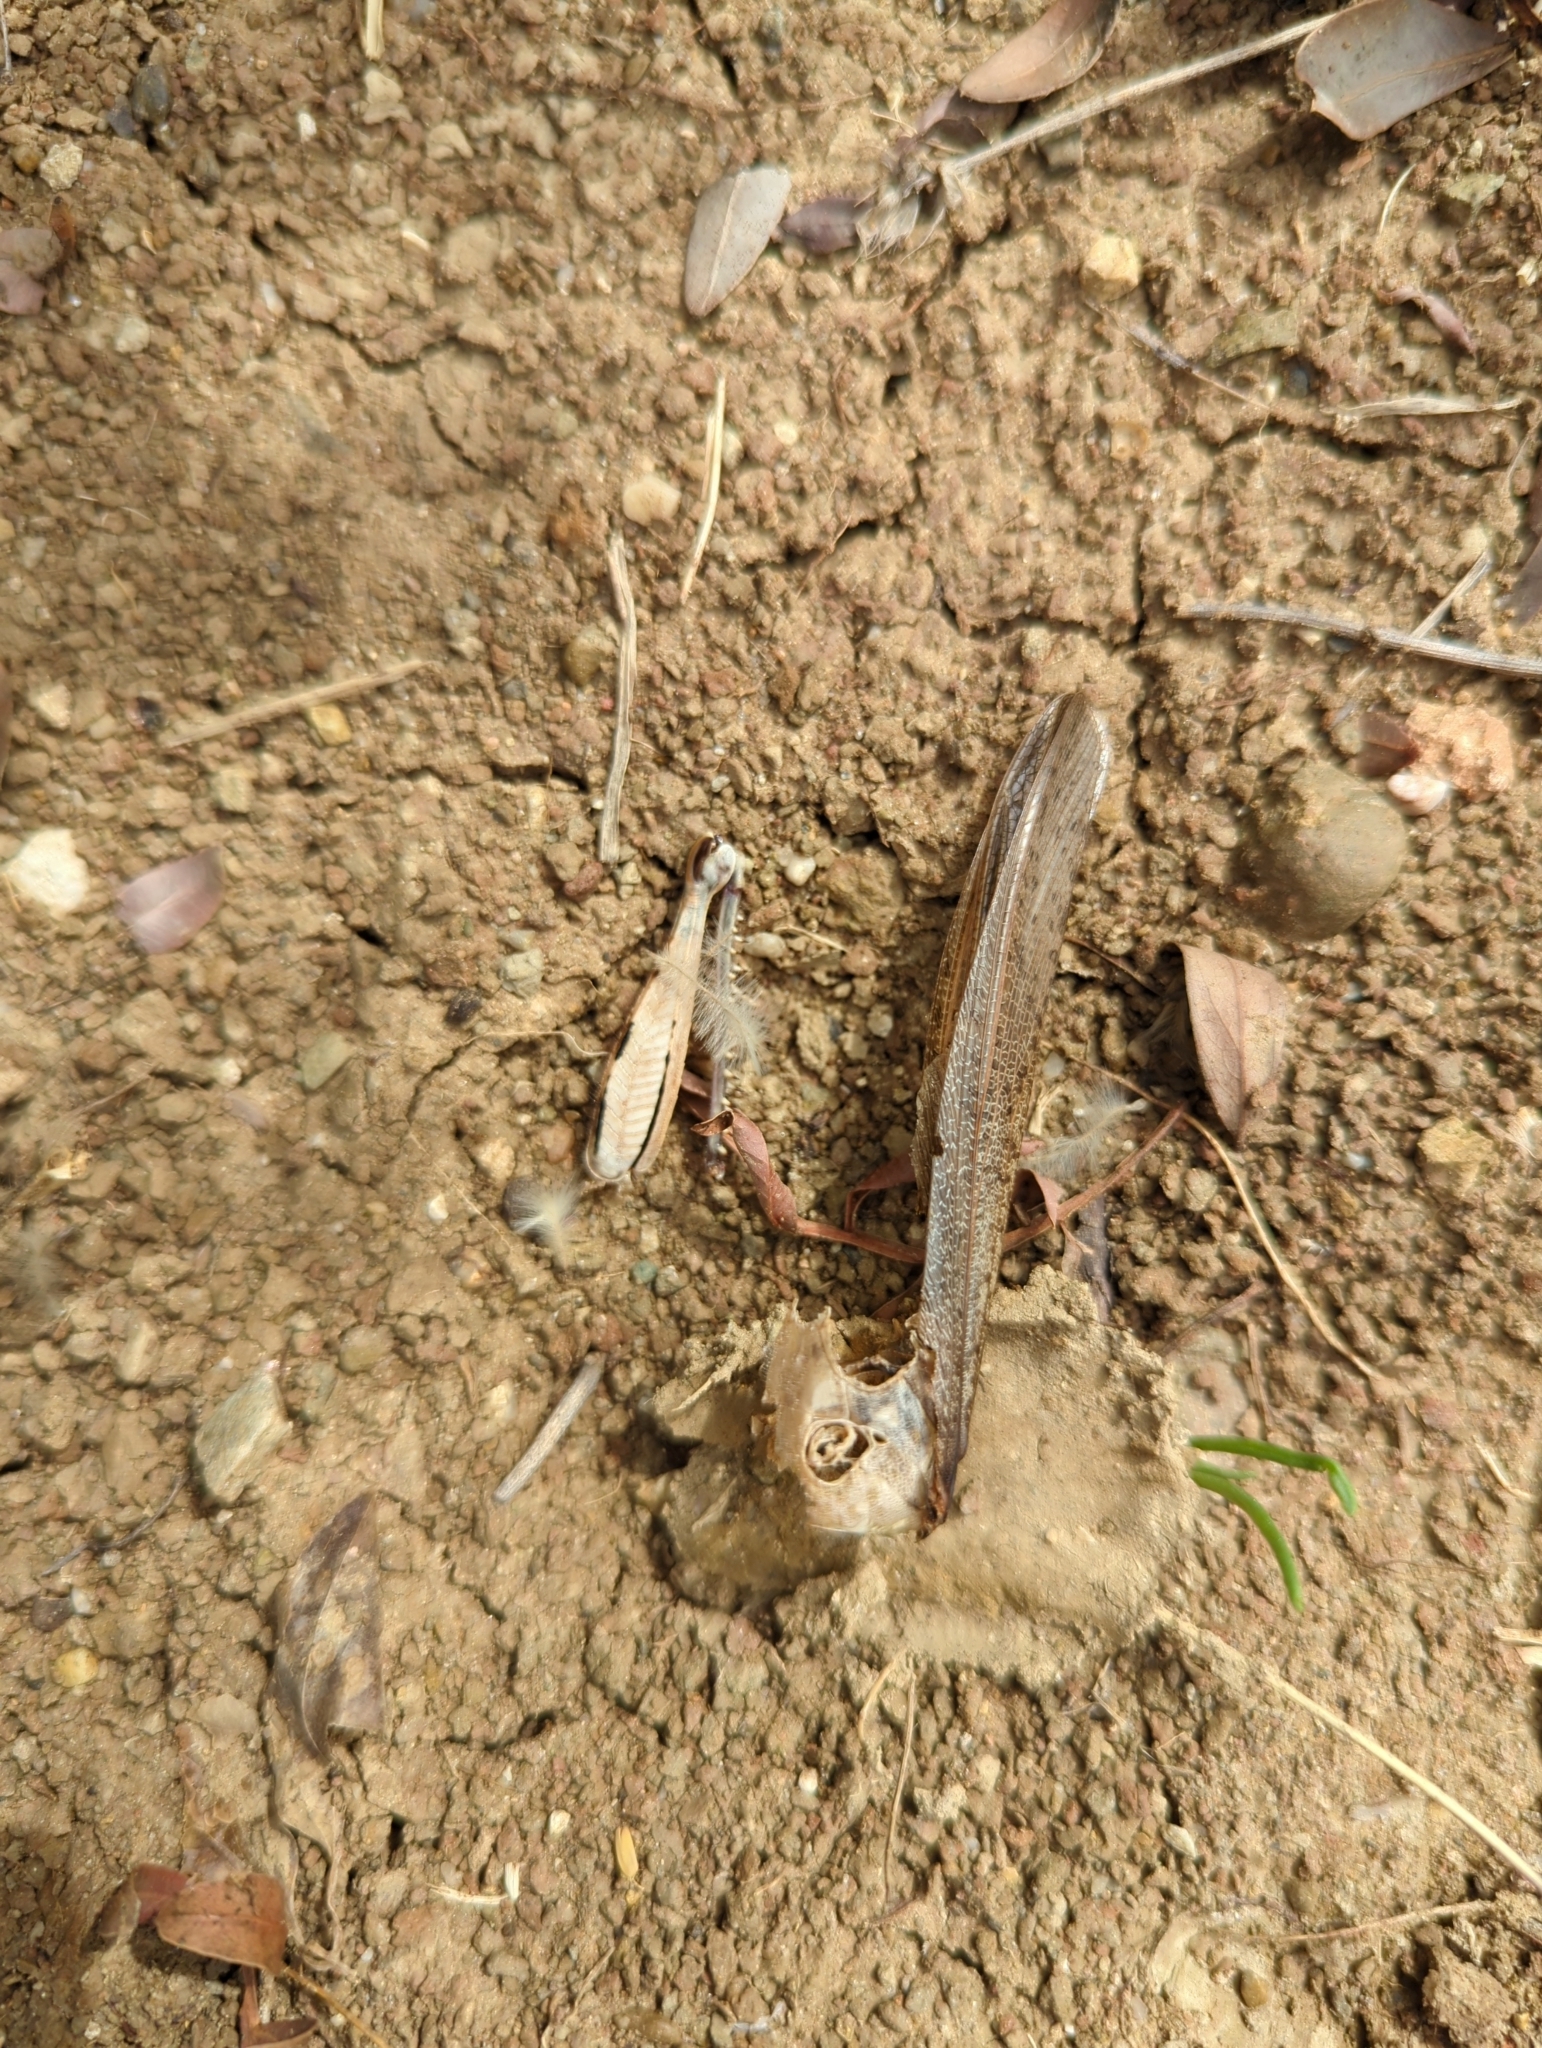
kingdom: Animalia
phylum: Arthropoda
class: Insecta
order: Orthoptera
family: Acrididae
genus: Anacridium
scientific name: Anacridium aegyptium
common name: Egyptian grasshopper
